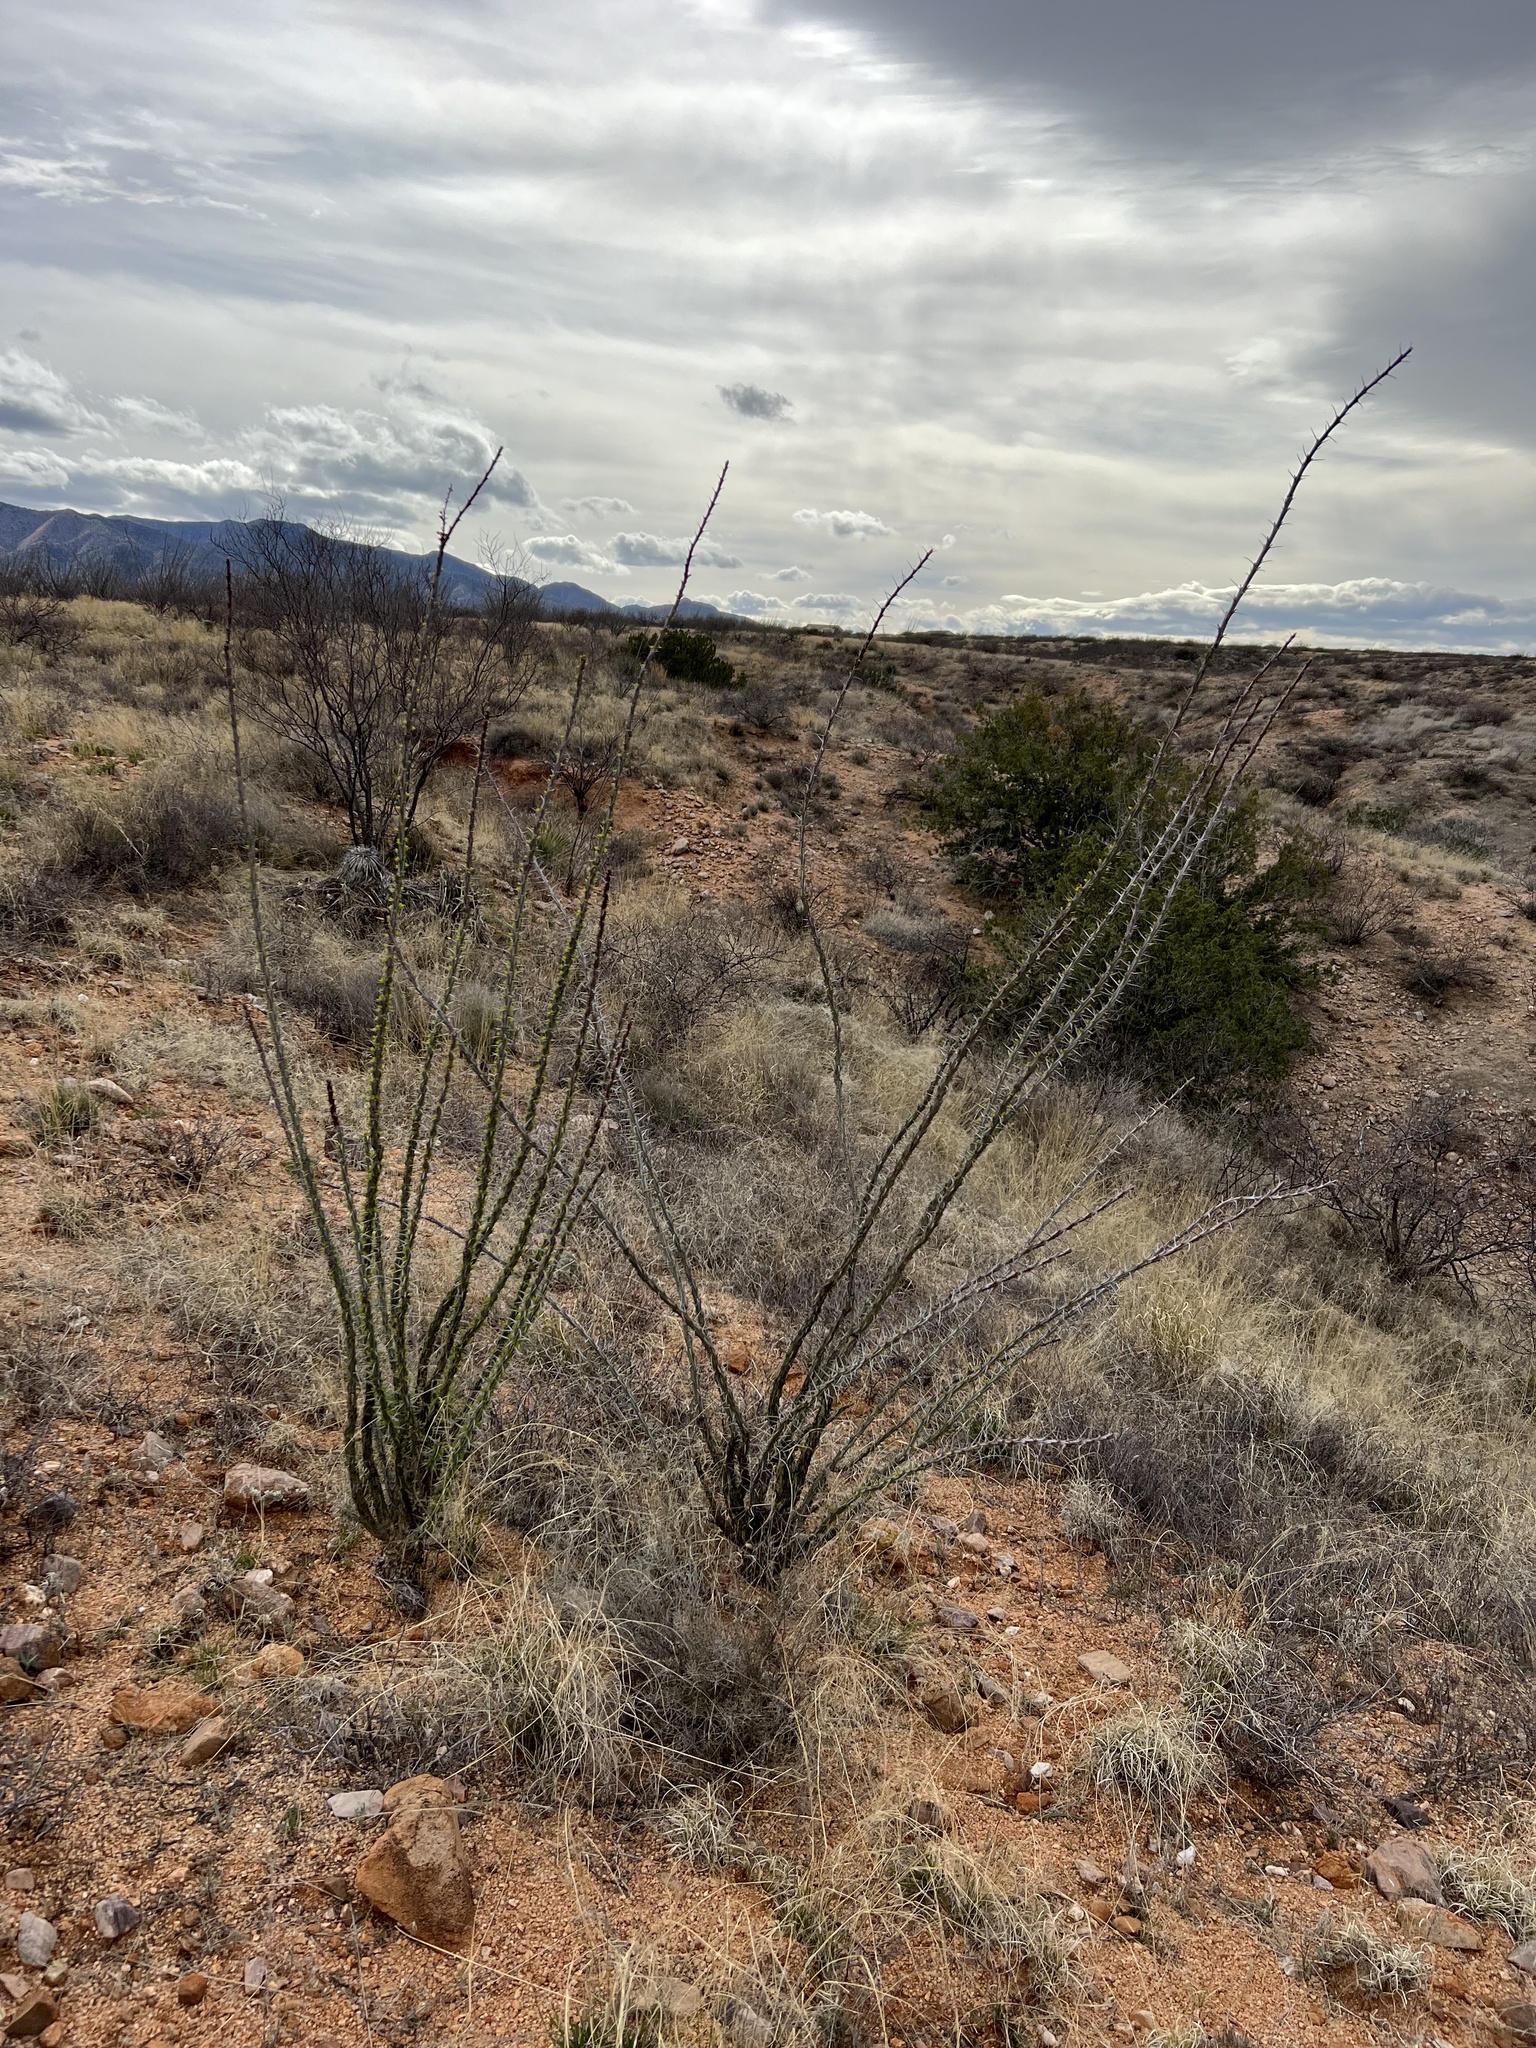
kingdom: Plantae
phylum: Tracheophyta
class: Magnoliopsida
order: Ericales
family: Fouquieriaceae
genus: Fouquieria
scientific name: Fouquieria splendens
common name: Vine-cactus
